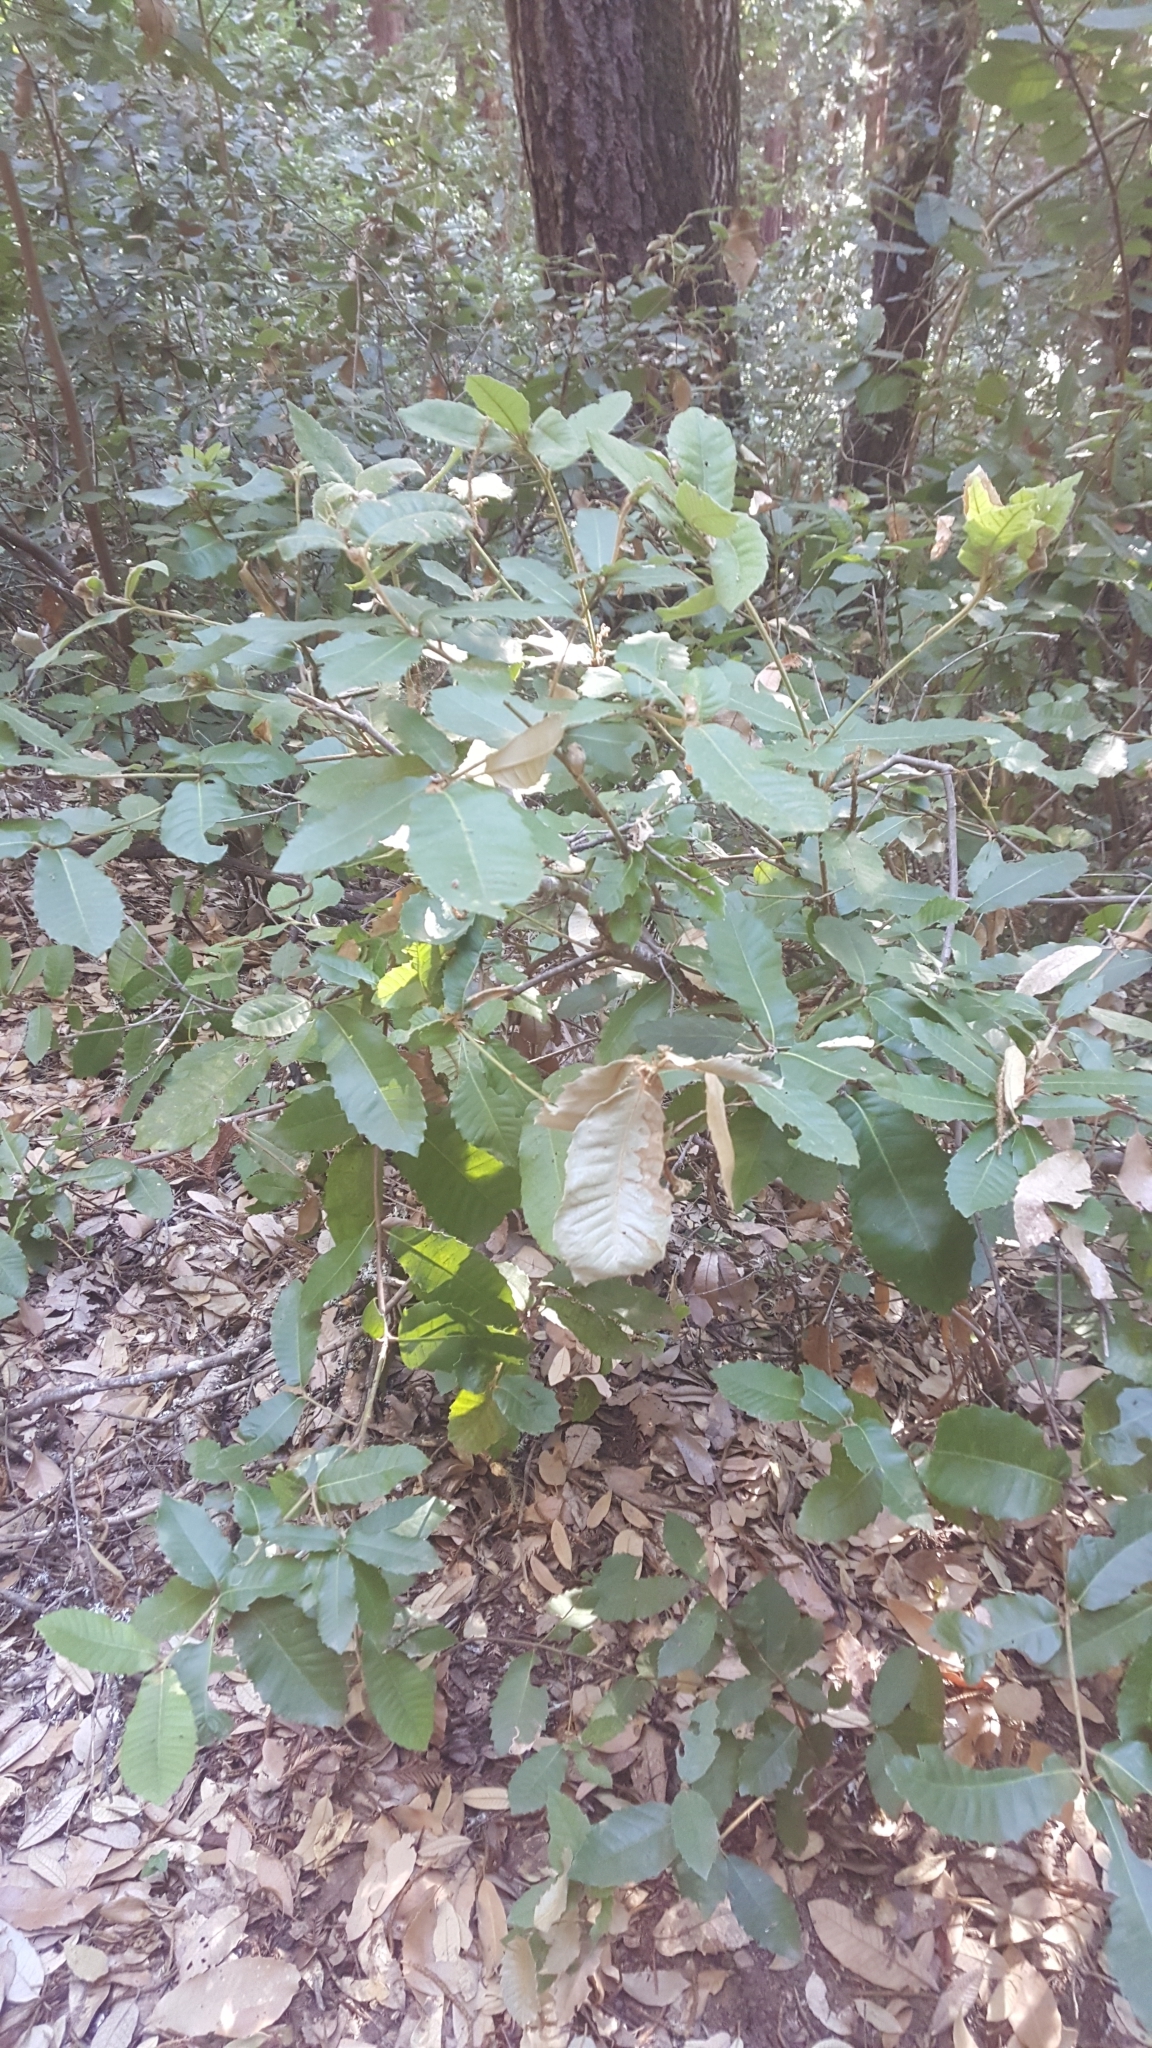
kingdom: Plantae
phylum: Tracheophyta
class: Magnoliopsida
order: Fagales
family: Fagaceae
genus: Notholithocarpus
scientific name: Notholithocarpus densiflorus
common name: Tan bark oak
